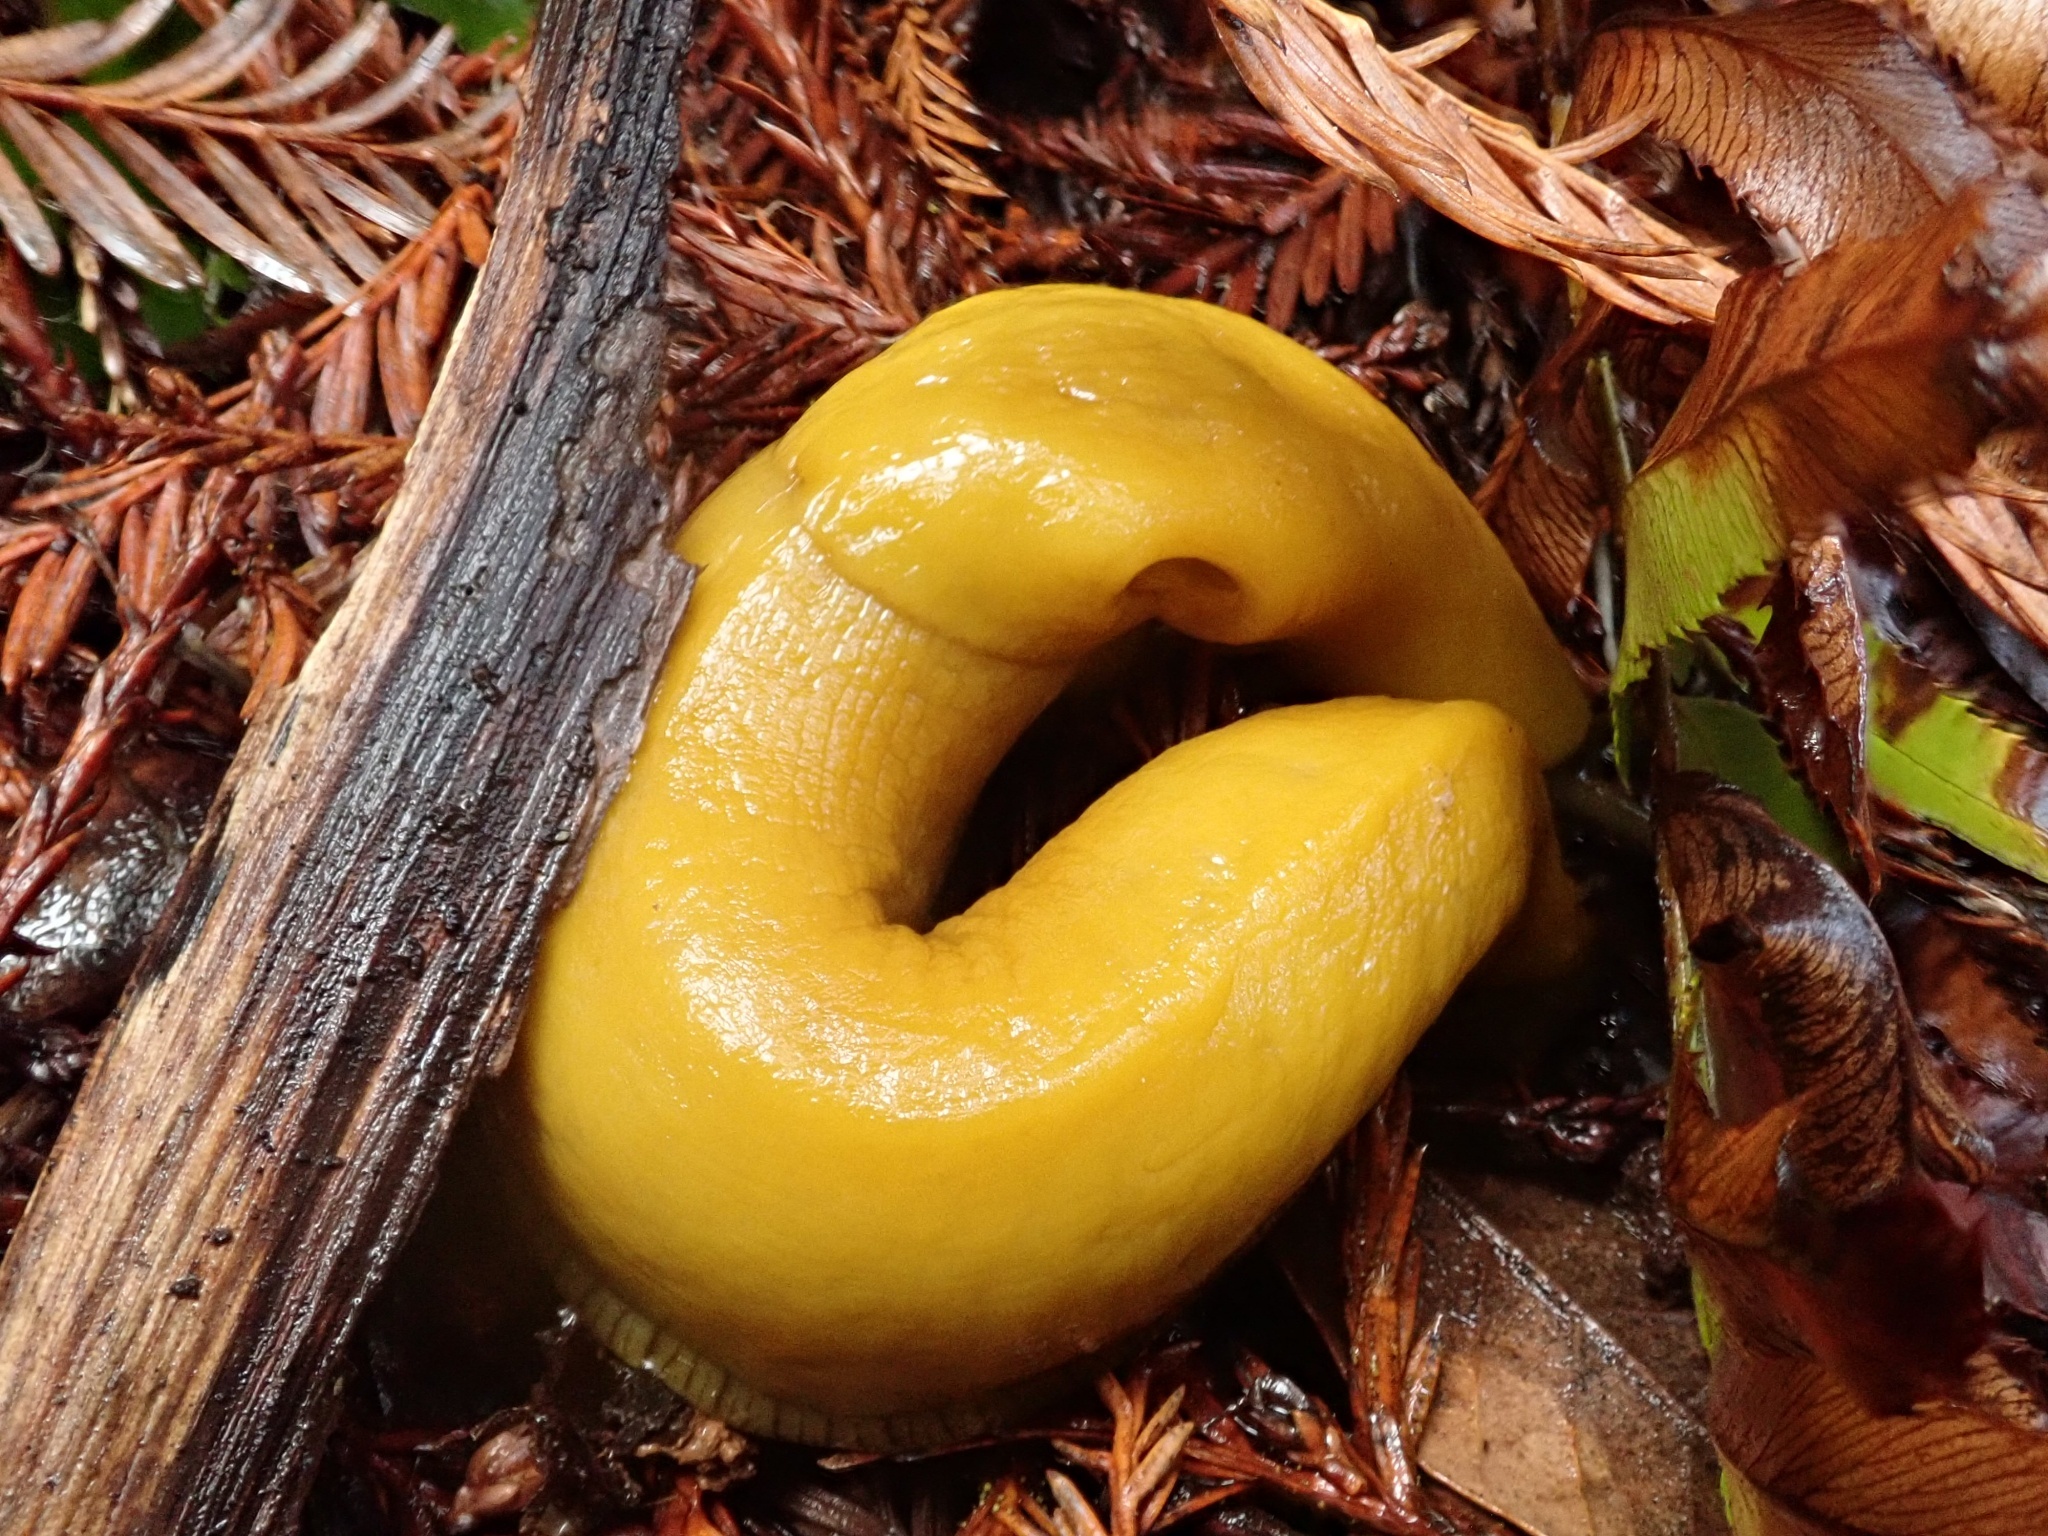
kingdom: Animalia
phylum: Mollusca
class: Gastropoda
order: Stylommatophora
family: Ariolimacidae
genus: Ariolimax
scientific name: Ariolimax californicus
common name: California banana slug
